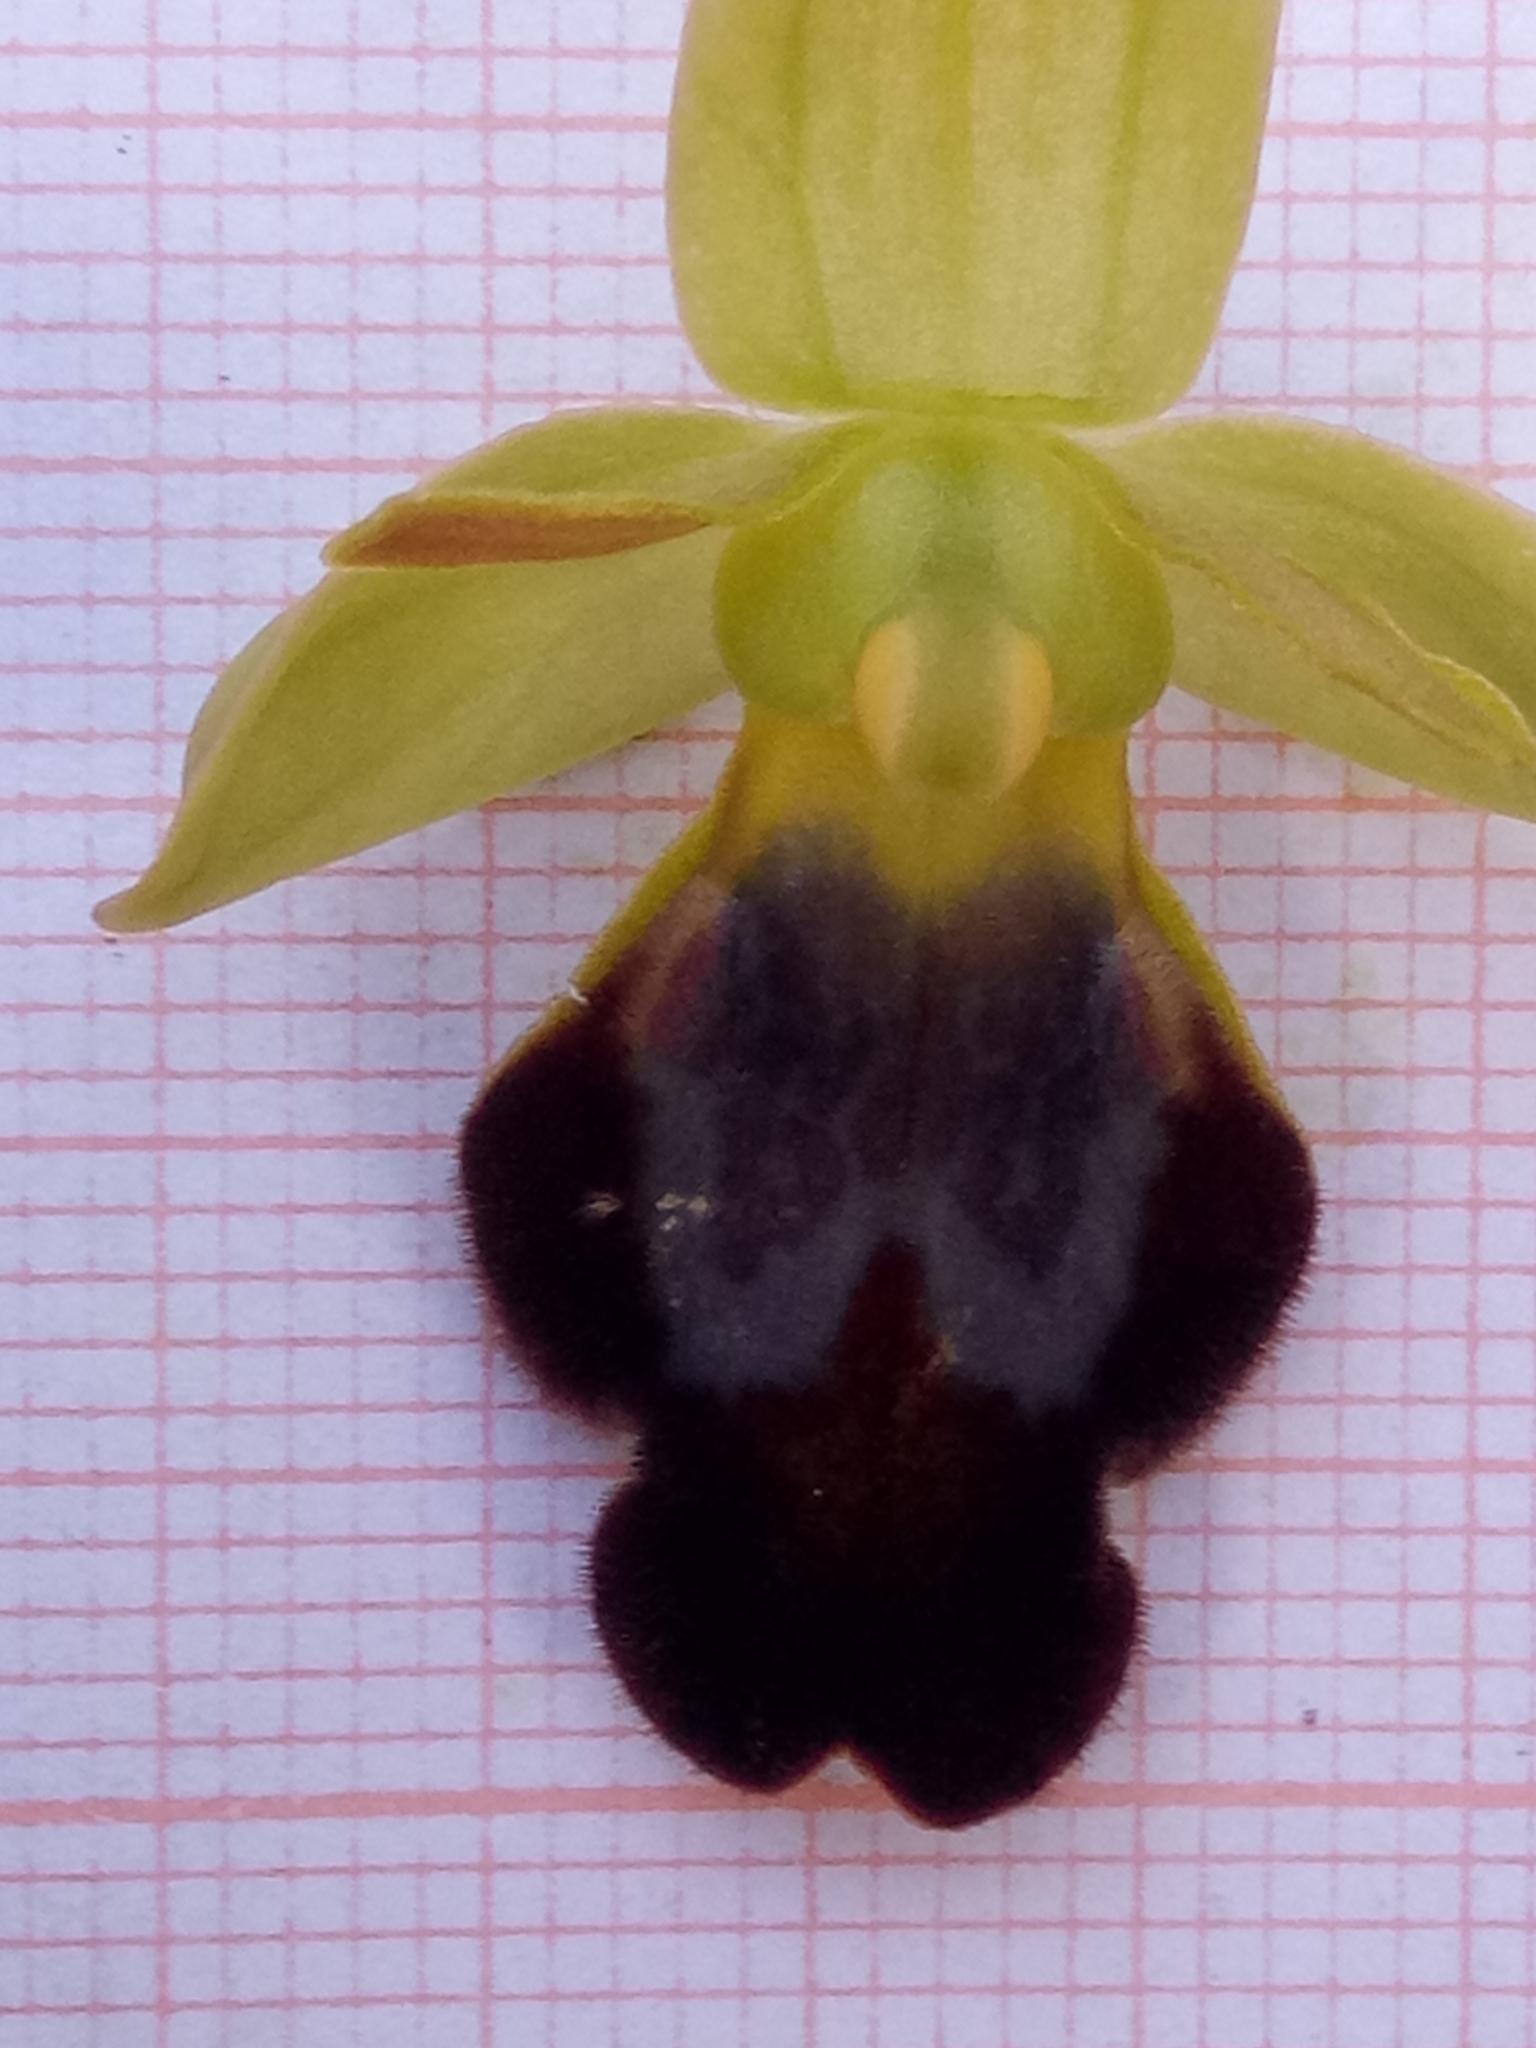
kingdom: Plantae
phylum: Tracheophyta
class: Liliopsida
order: Asparagales
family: Orchidaceae
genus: Ophrys
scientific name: Ophrys fusca
